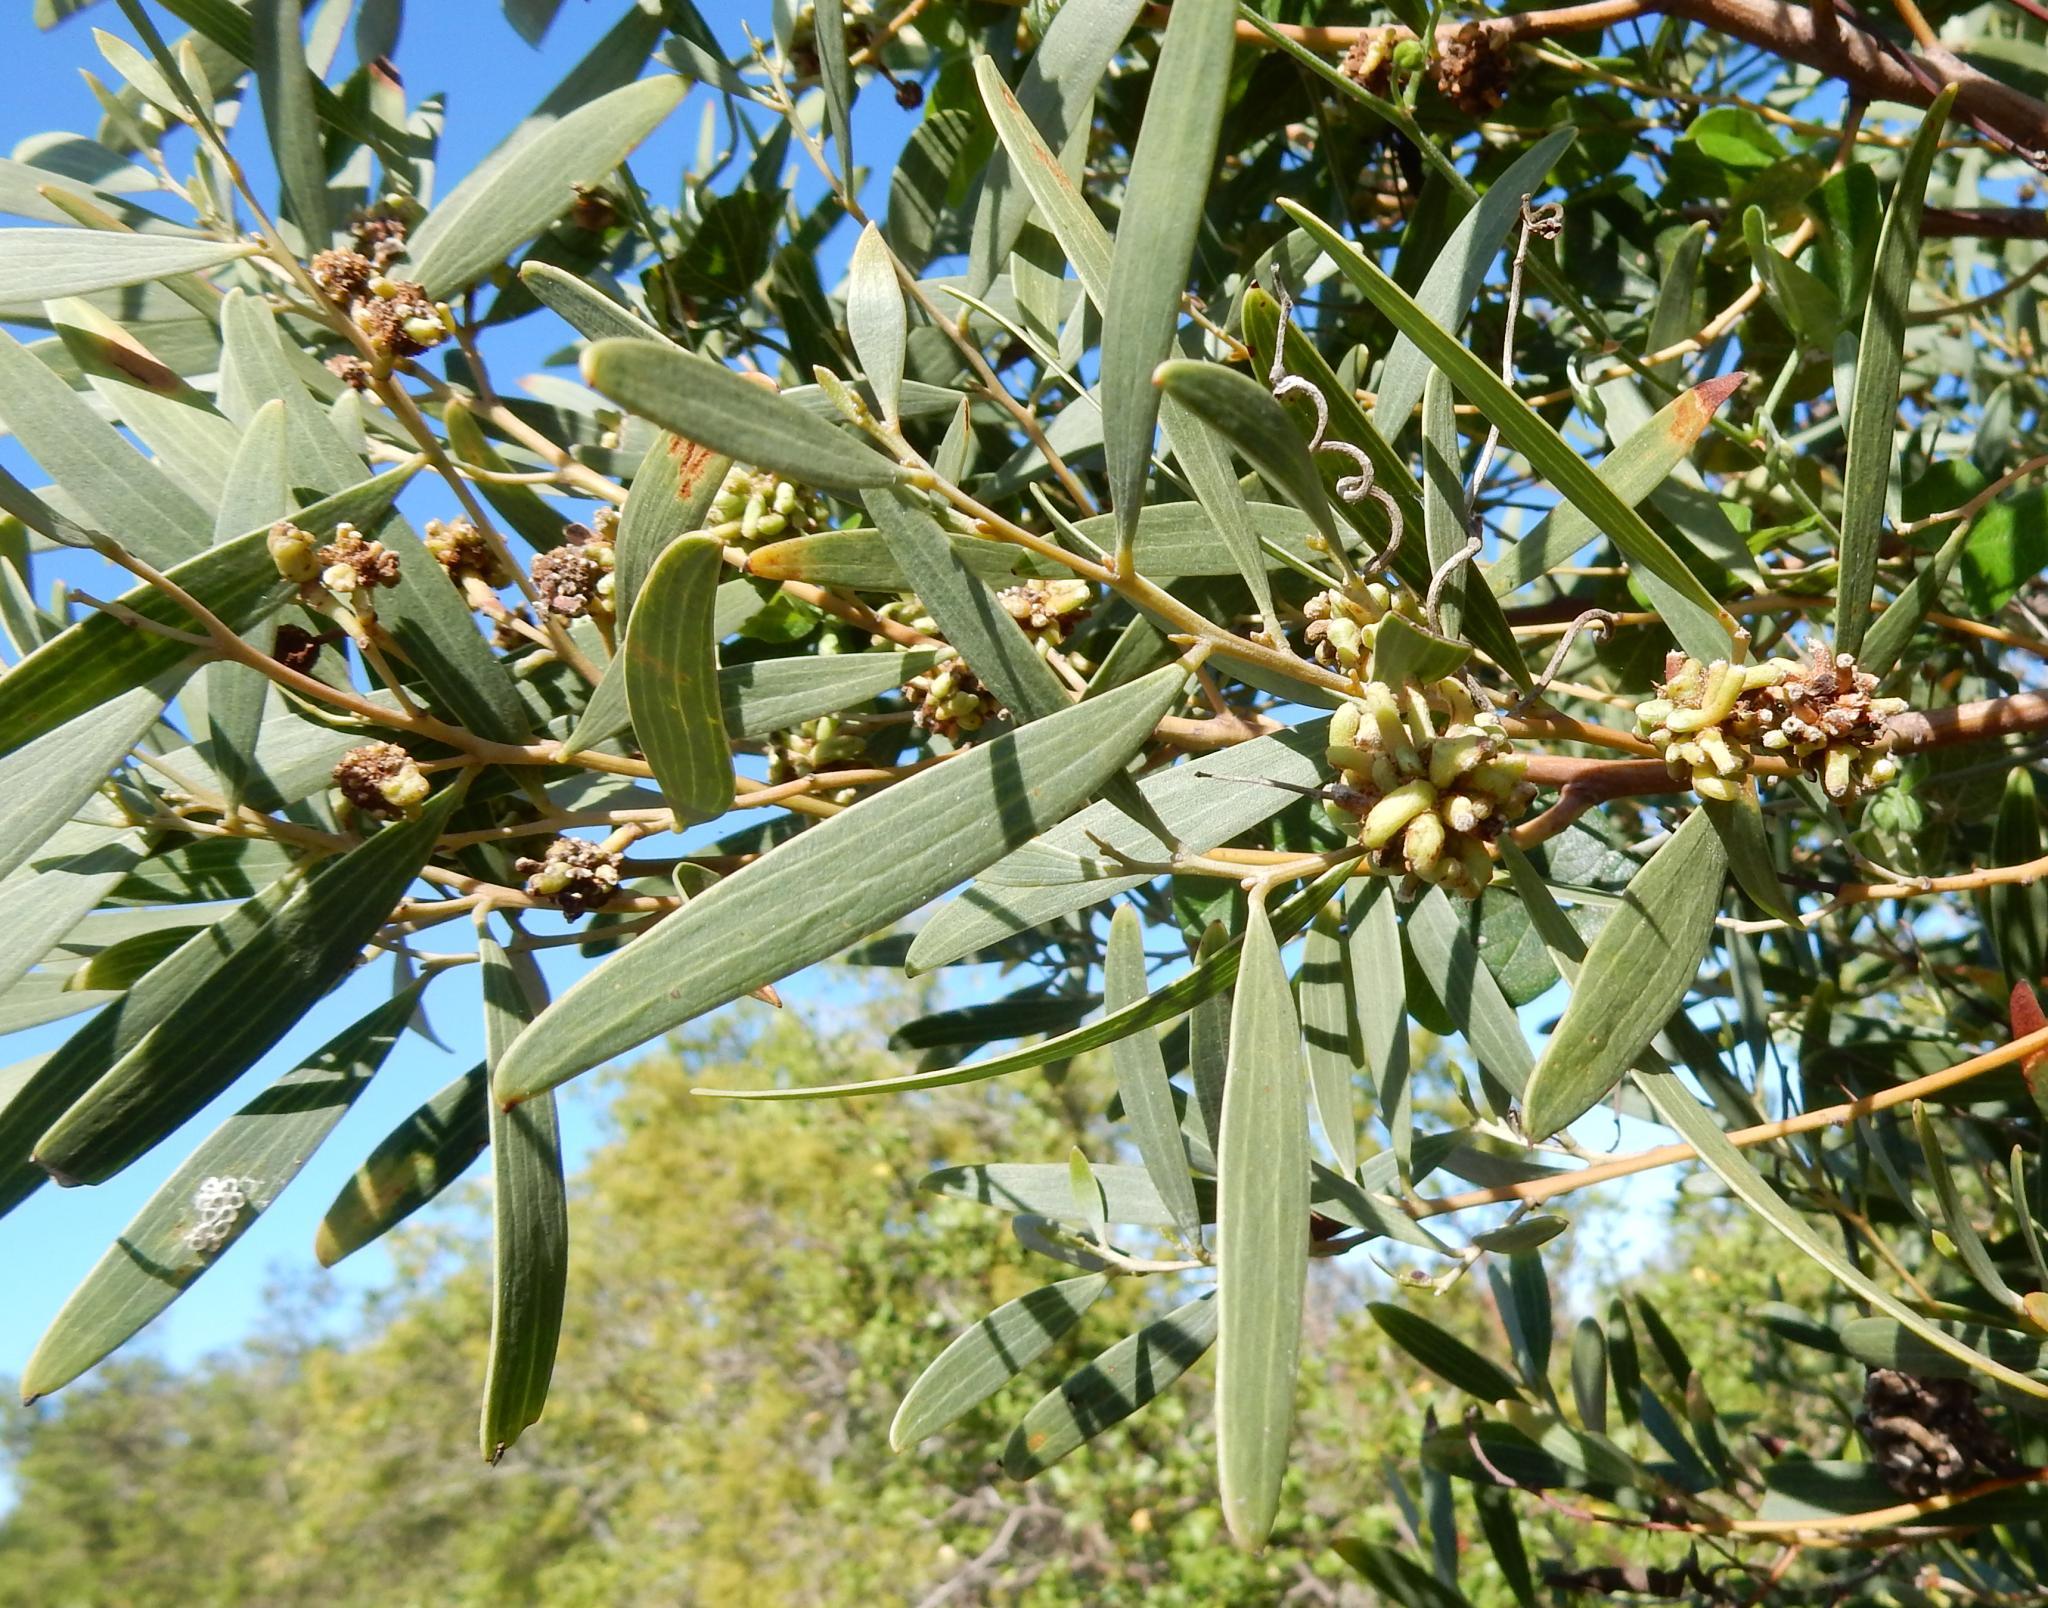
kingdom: Plantae
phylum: Tracheophyta
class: Magnoliopsida
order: Fabales
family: Fabaceae
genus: Acacia
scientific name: Acacia cyclops
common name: Coastal wattle
